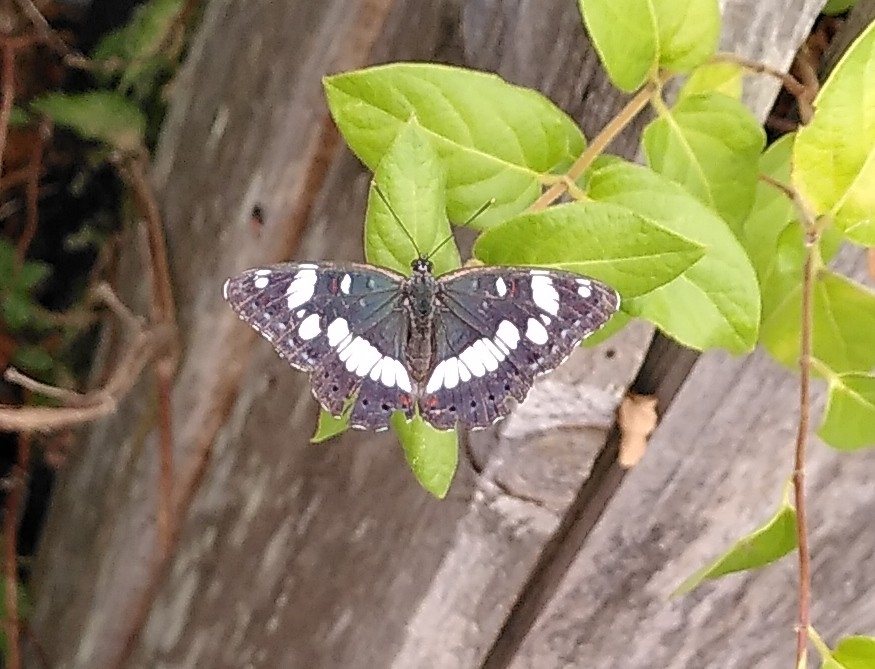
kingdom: Animalia
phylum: Arthropoda
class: Insecta
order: Lepidoptera
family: Nymphalidae
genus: Limenitis
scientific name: Limenitis reducta
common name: Southern white admiral
